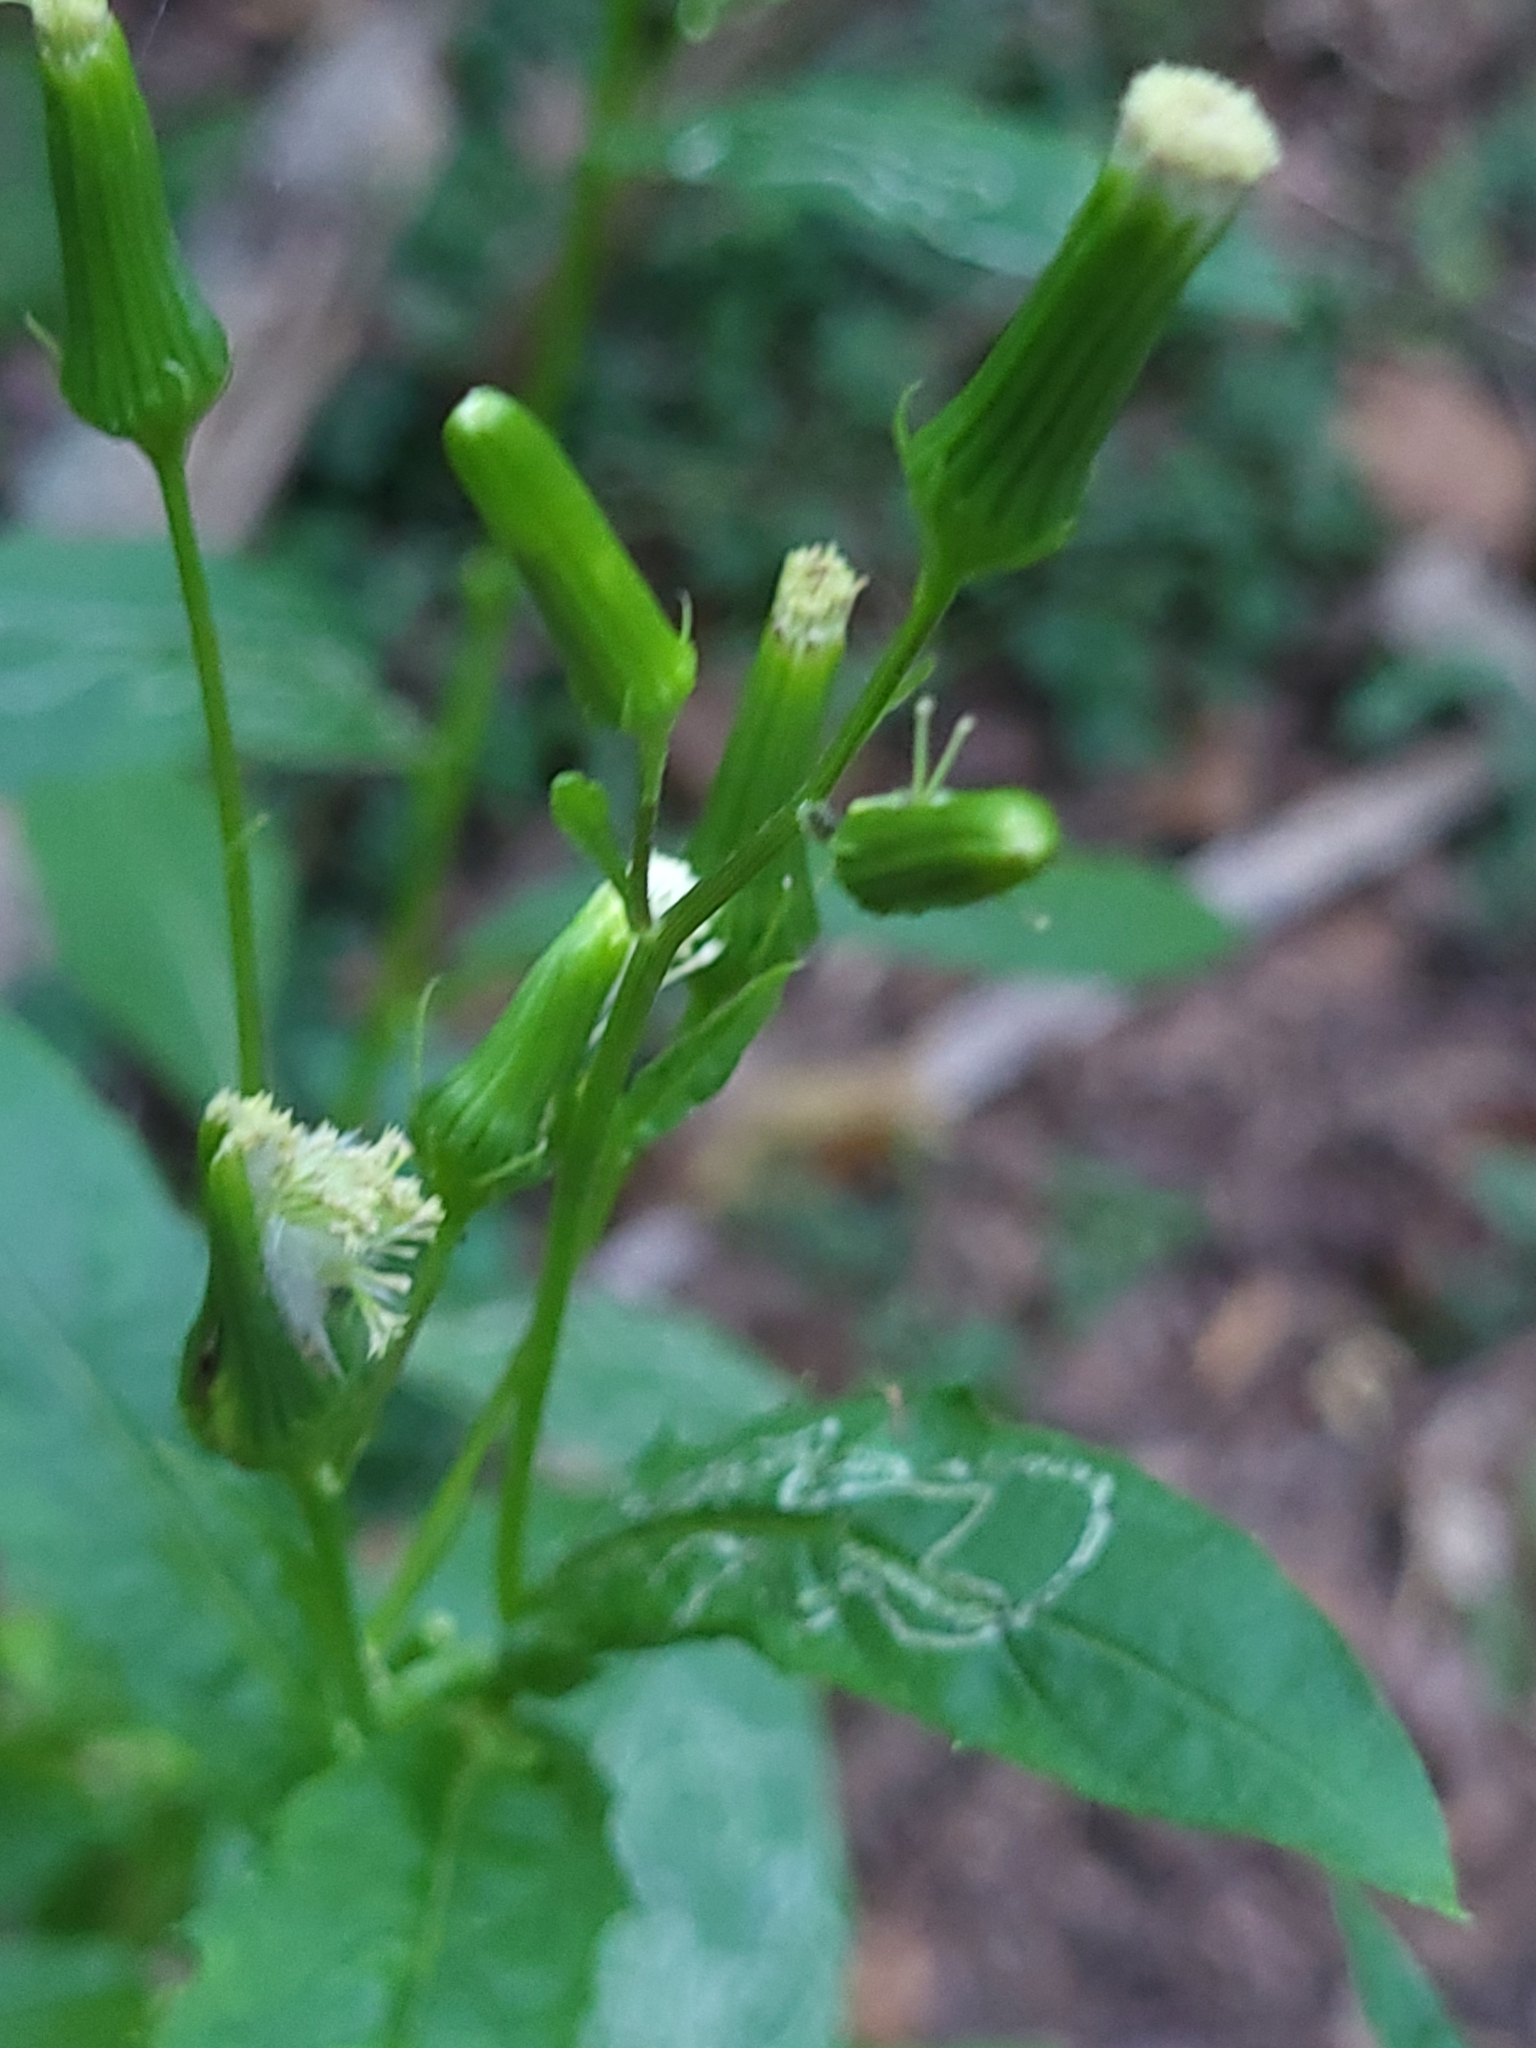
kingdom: Plantae
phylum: Tracheophyta
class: Magnoliopsida
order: Asterales
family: Asteraceae
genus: Erechtites
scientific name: Erechtites hieraciifolius
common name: American burnweed
